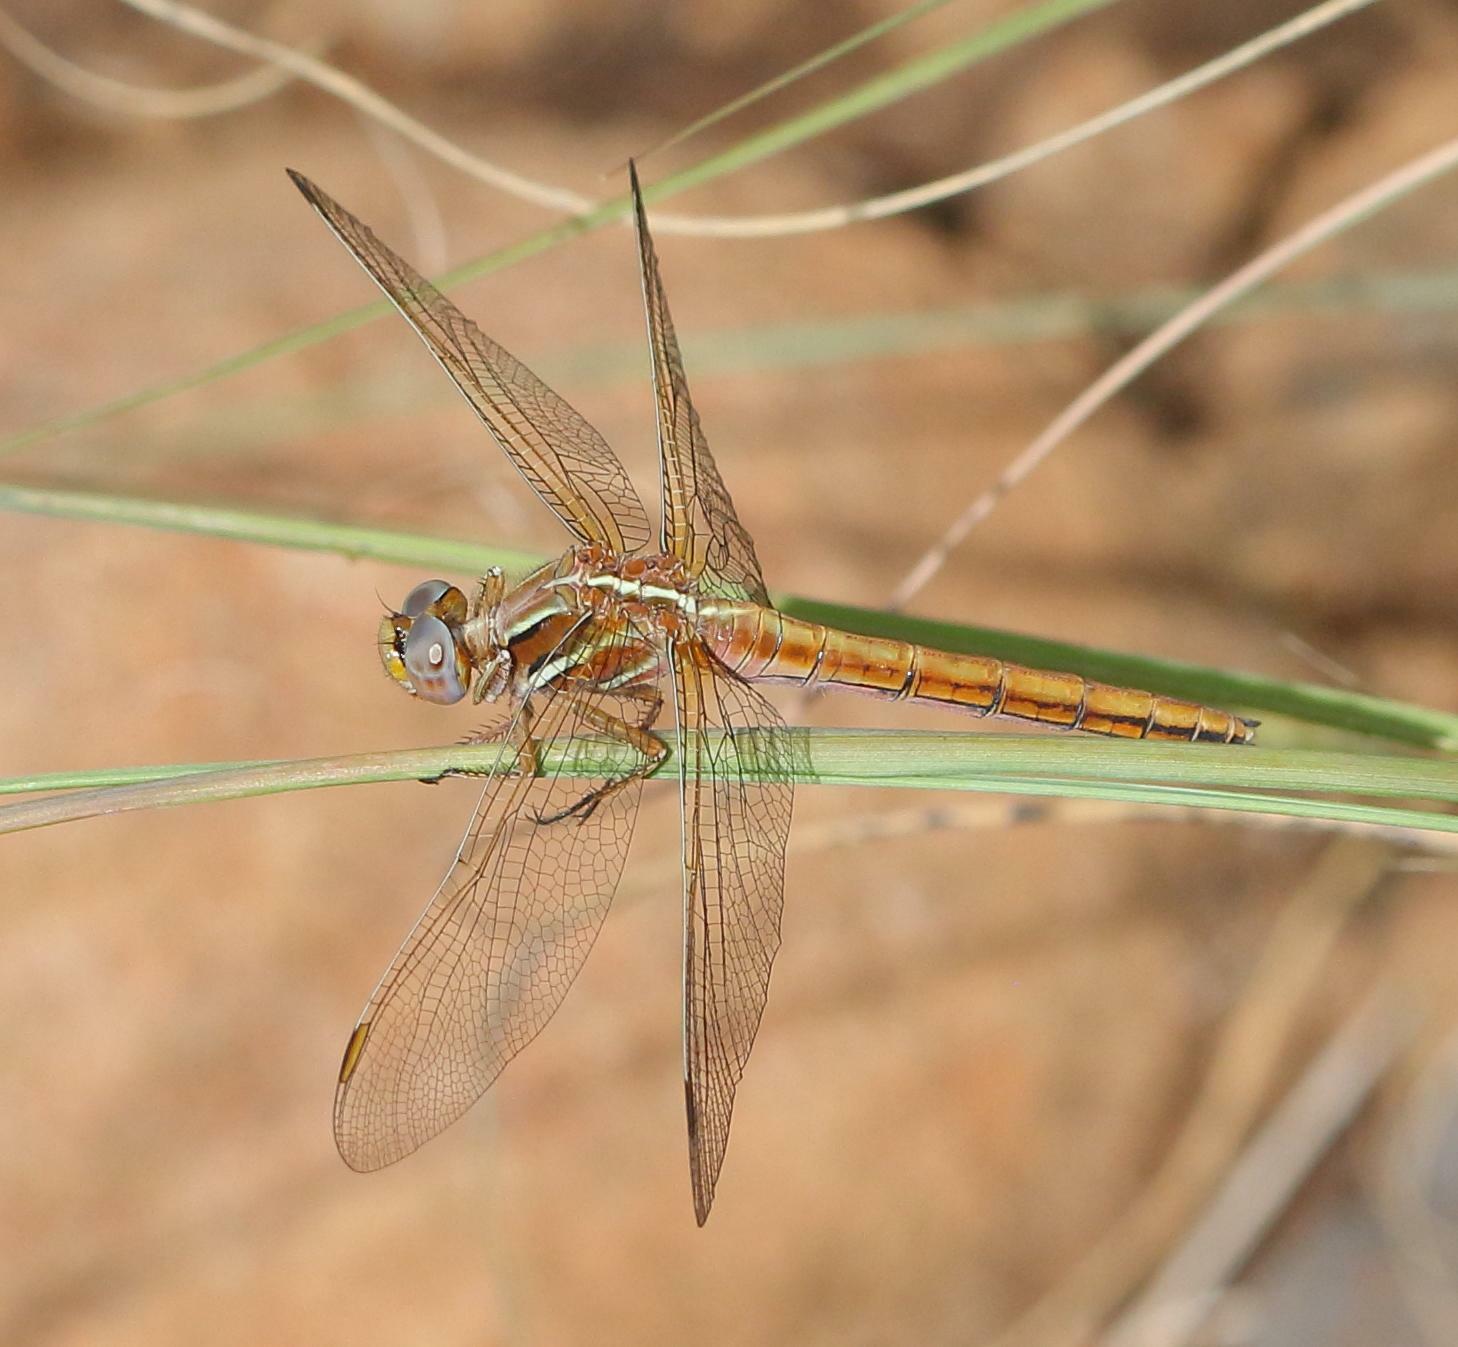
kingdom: Animalia
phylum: Arthropoda
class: Insecta
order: Odonata
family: Libellulidae
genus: Orthetrum
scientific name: Orthetrum caffrum
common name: Two-striped skimmer
